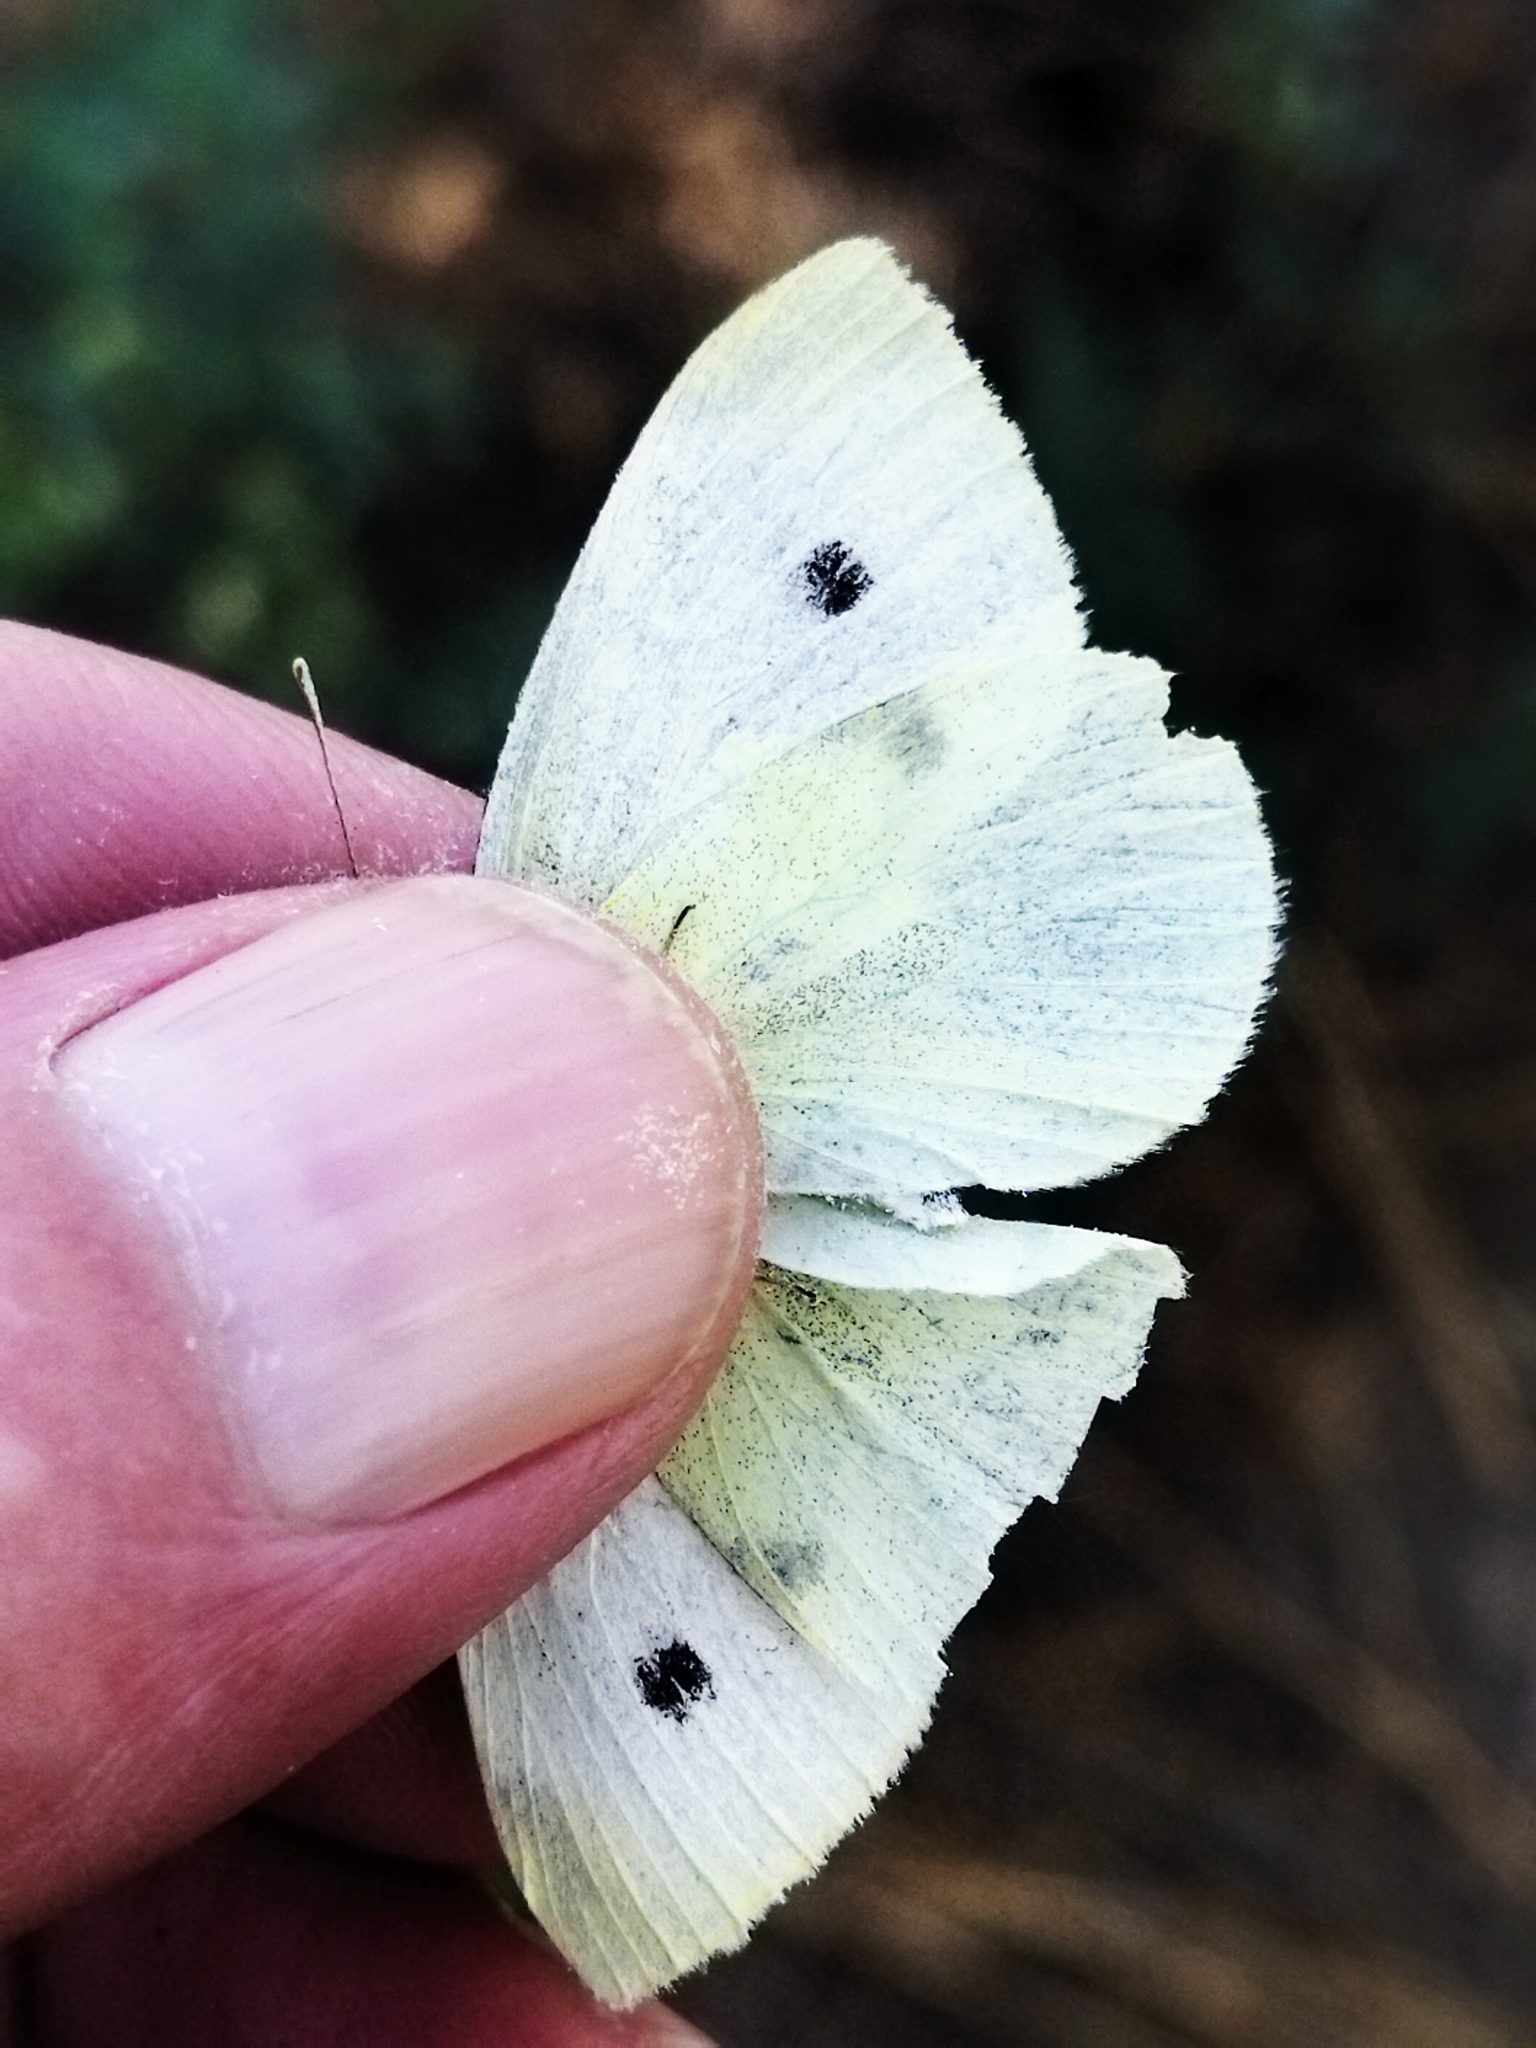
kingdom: Animalia
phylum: Arthropoda
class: Insecta
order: Lepidoptera
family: Pieridae
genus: Pieris
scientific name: Pieris rapae
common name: Small white
